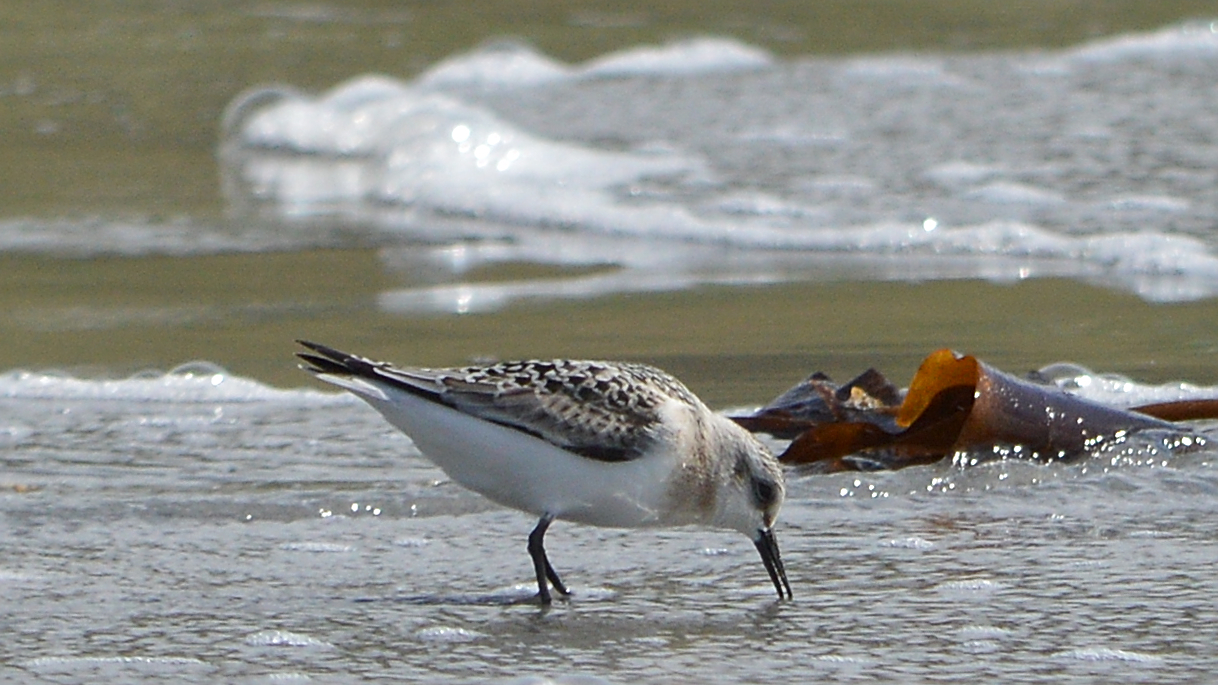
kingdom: Animalia
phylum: Chordata
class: Aves
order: Charadriiformes
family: Scolopacidae
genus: Calidris
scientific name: Calidris alba
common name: Sanderling
